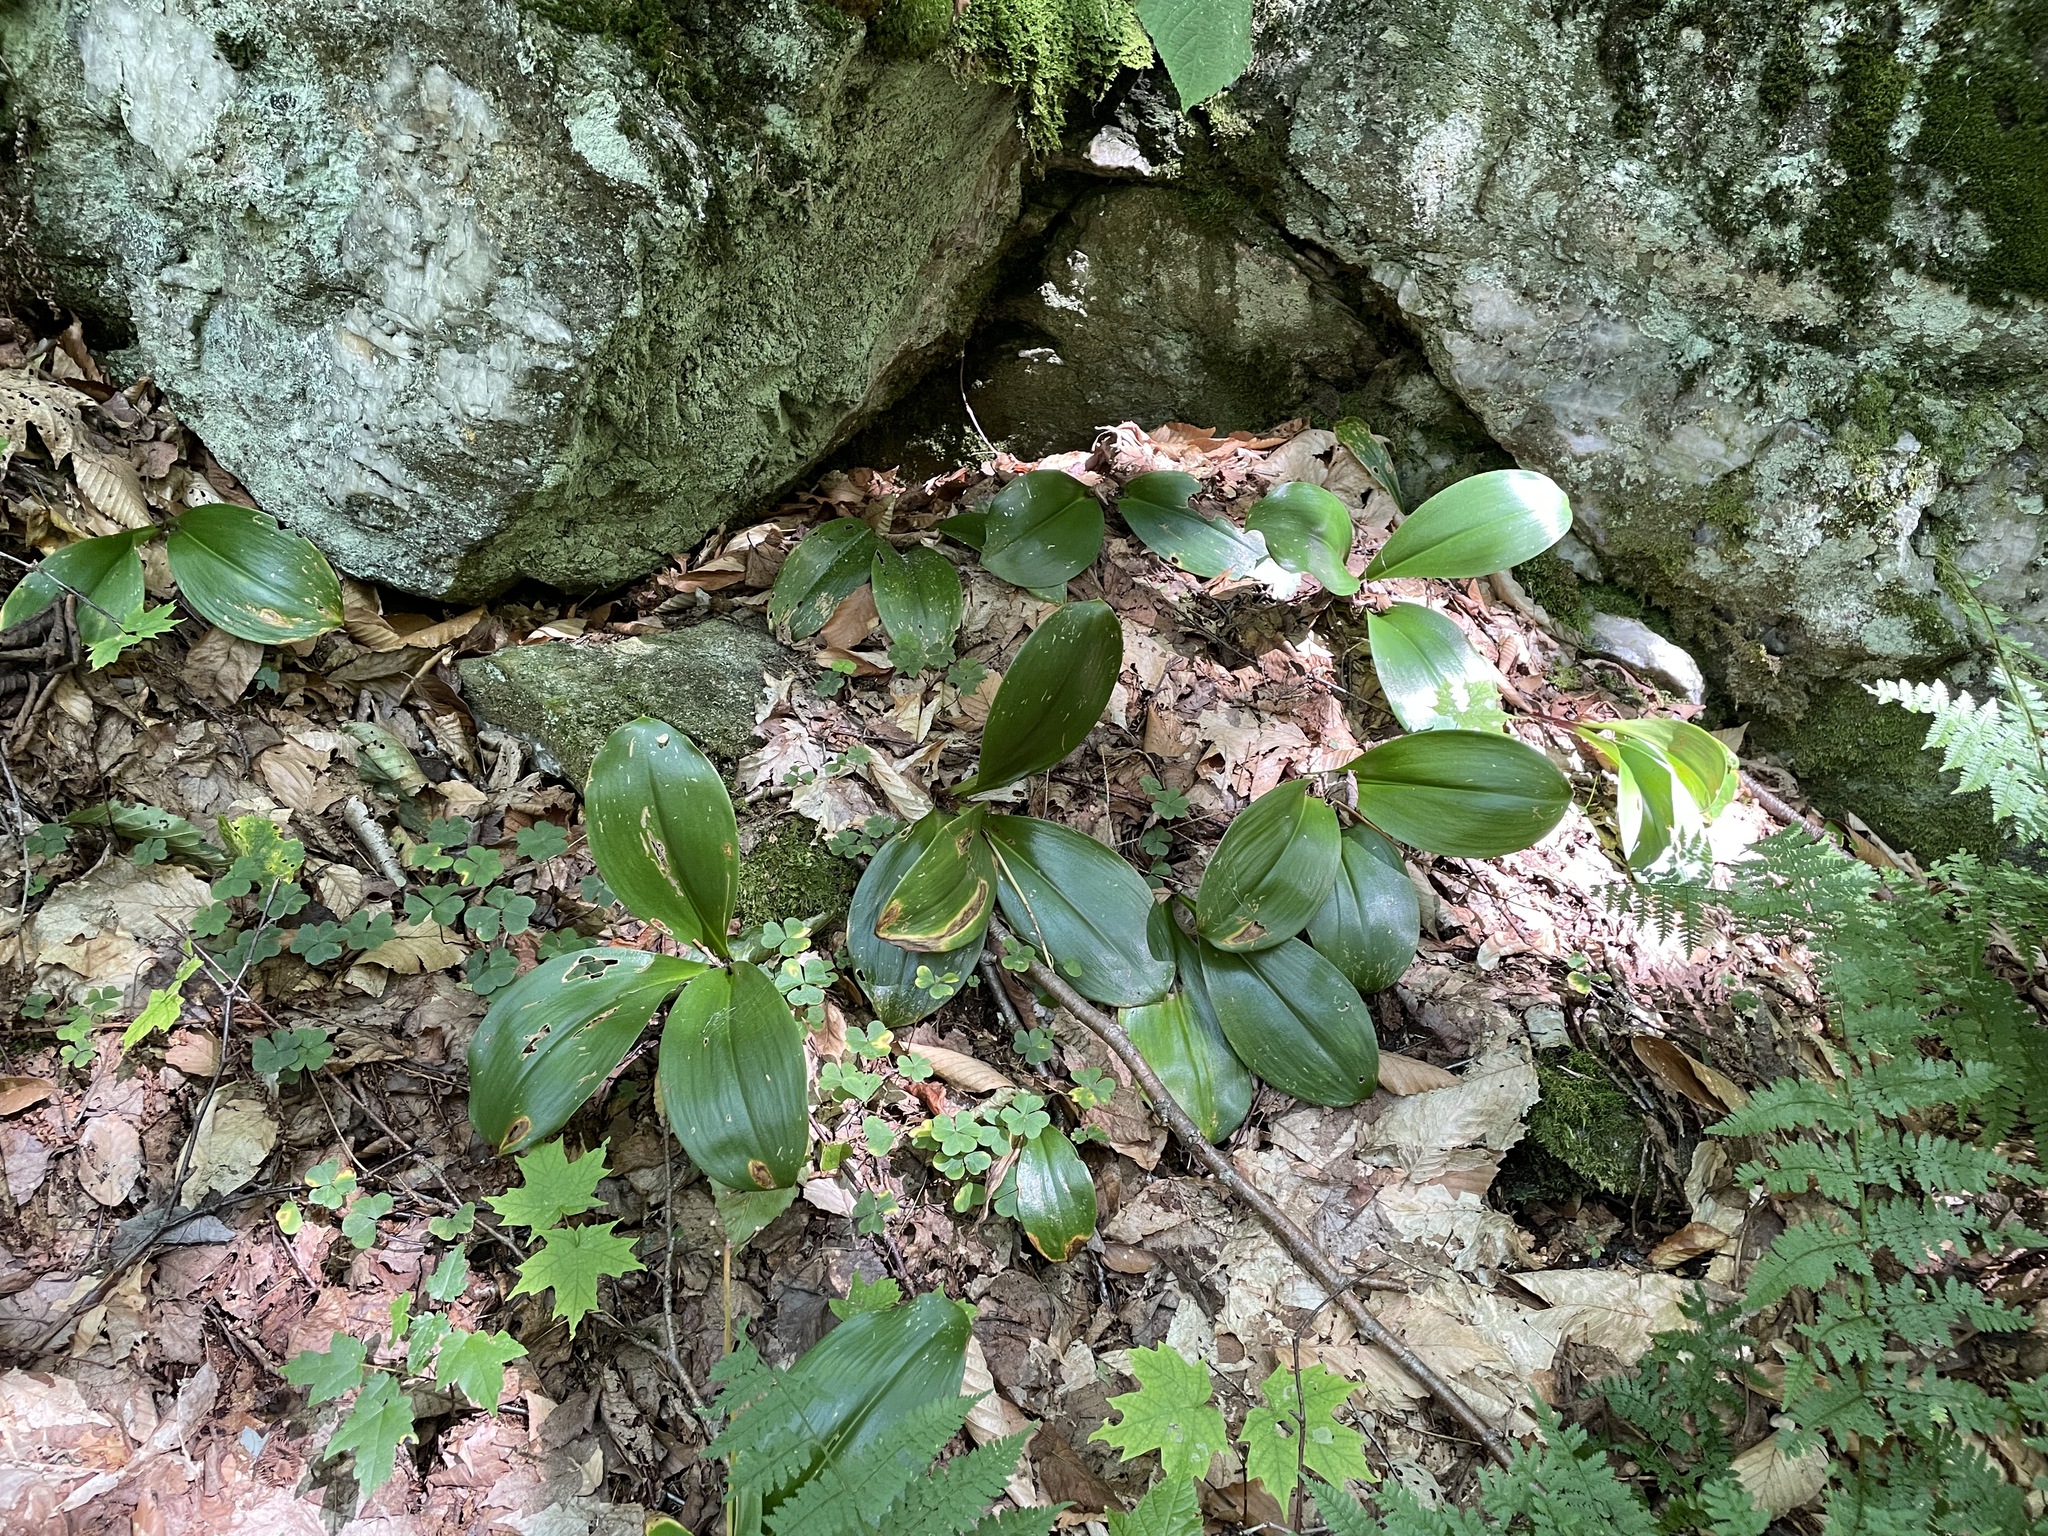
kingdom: Plantae
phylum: Tracheophyta
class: Liliopsida
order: Liliales
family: Liliaceae
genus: Clintonia
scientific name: Clintonia borealis
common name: Yellow clintonia
